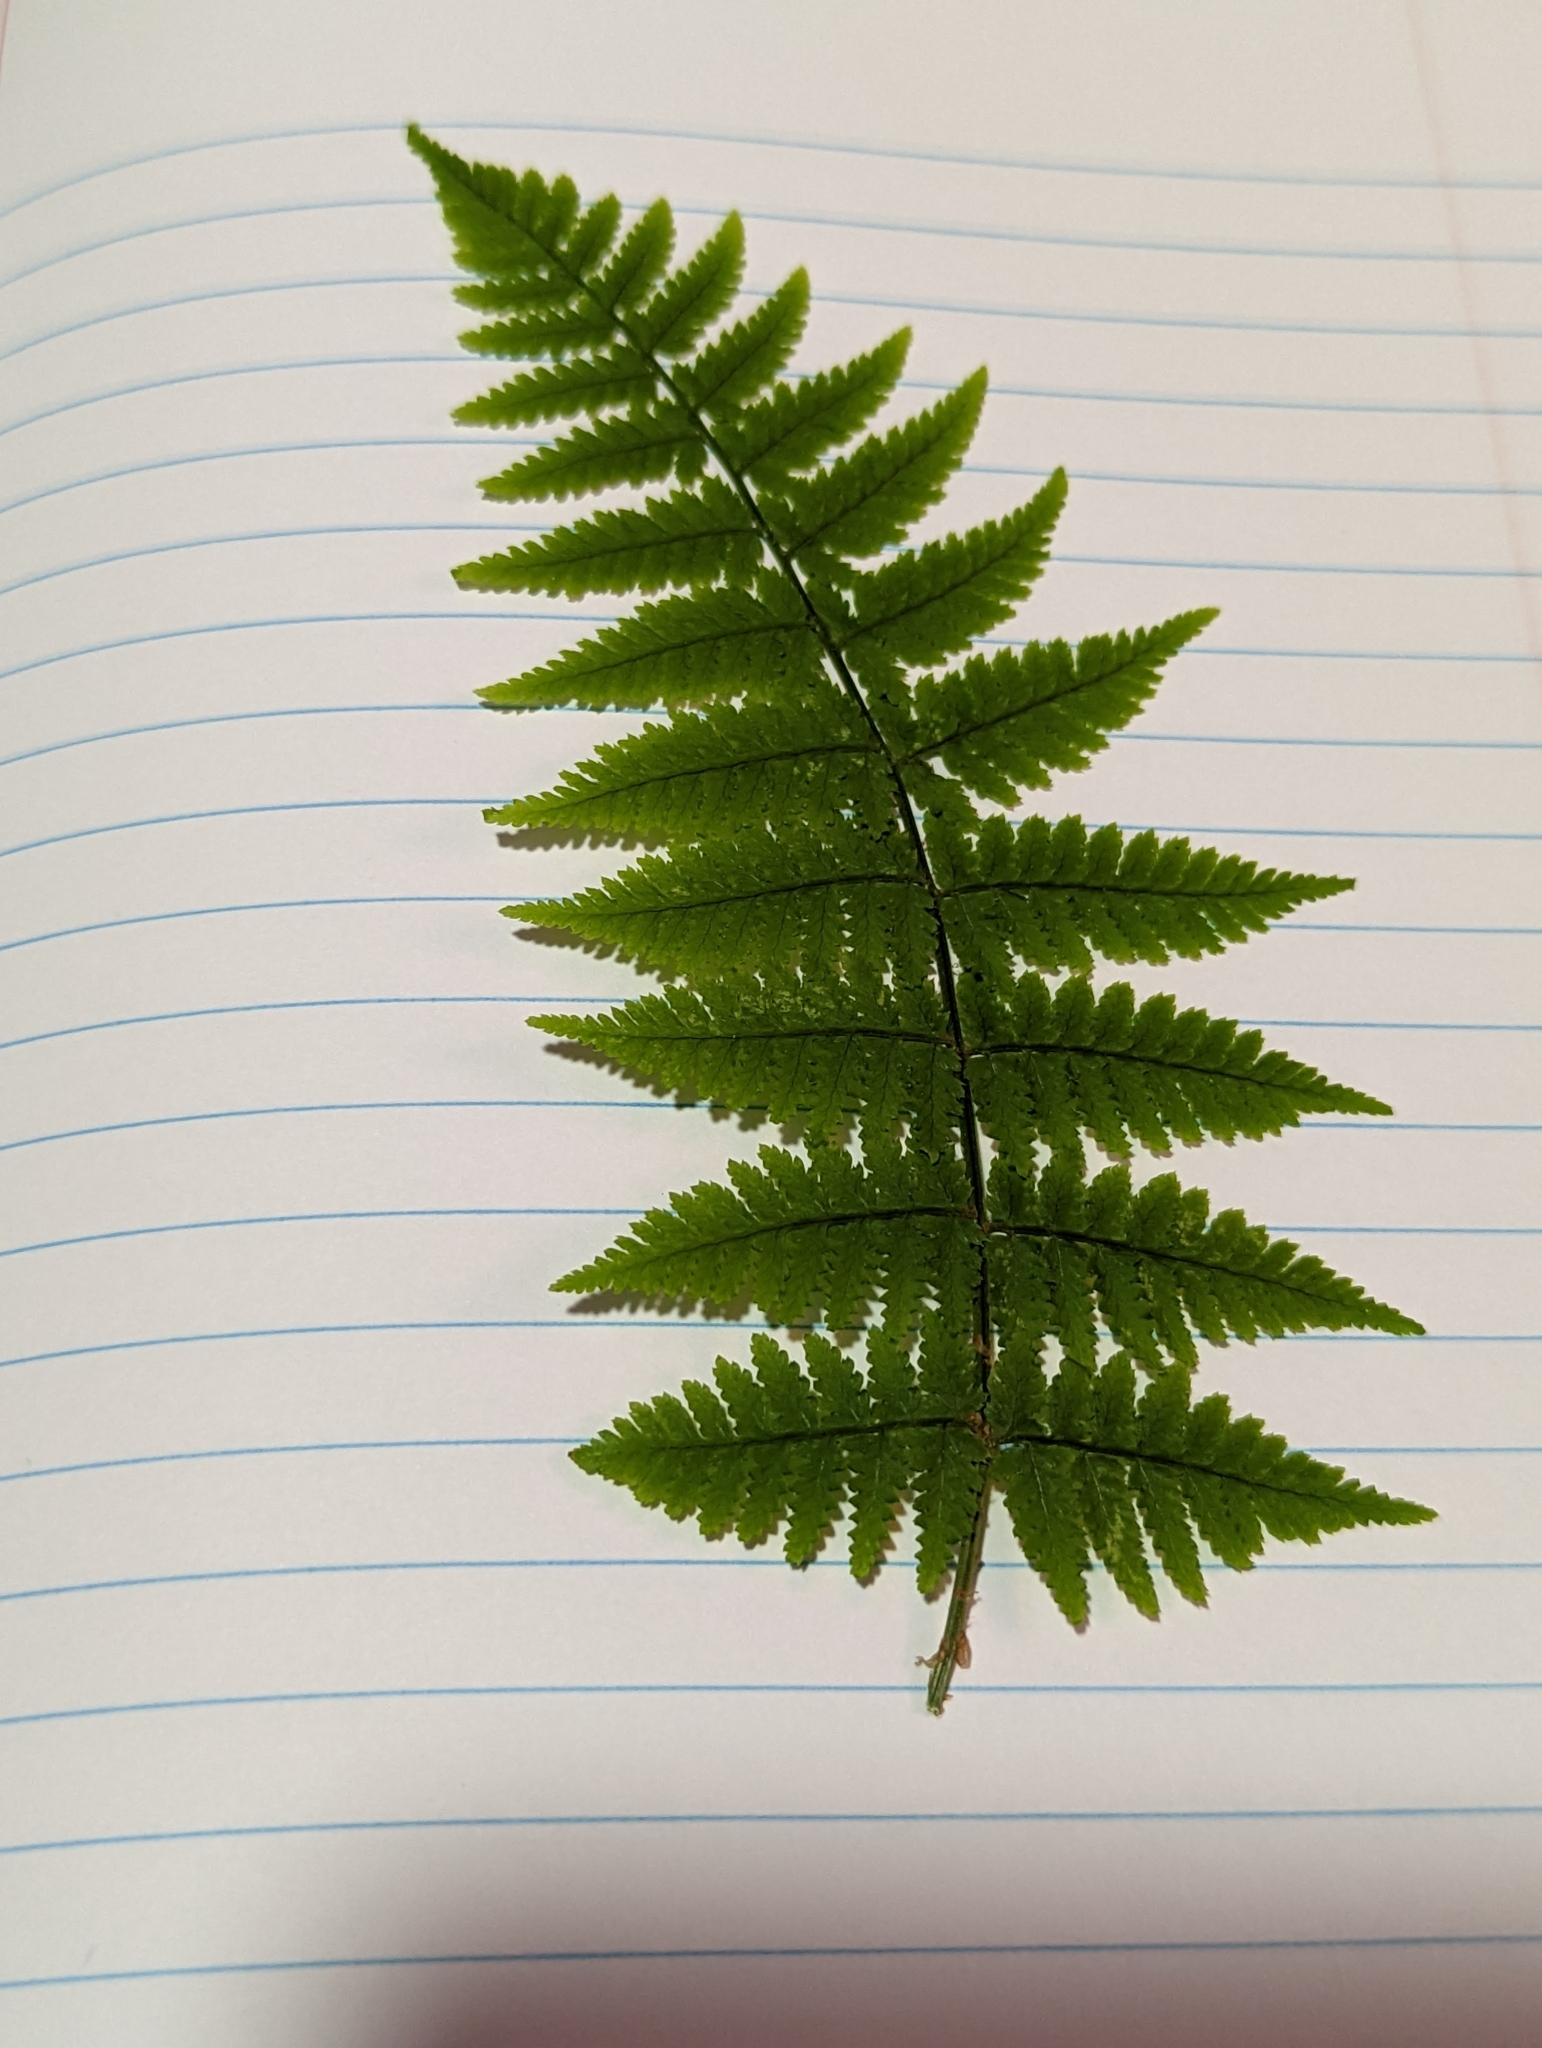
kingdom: Plantae
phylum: Tracheophyta
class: Polypodiopsida
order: Polypodiales
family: Dryopteridaceae
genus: Dryopteris
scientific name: Dryopteris intermedia
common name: Evergreen wood fern
